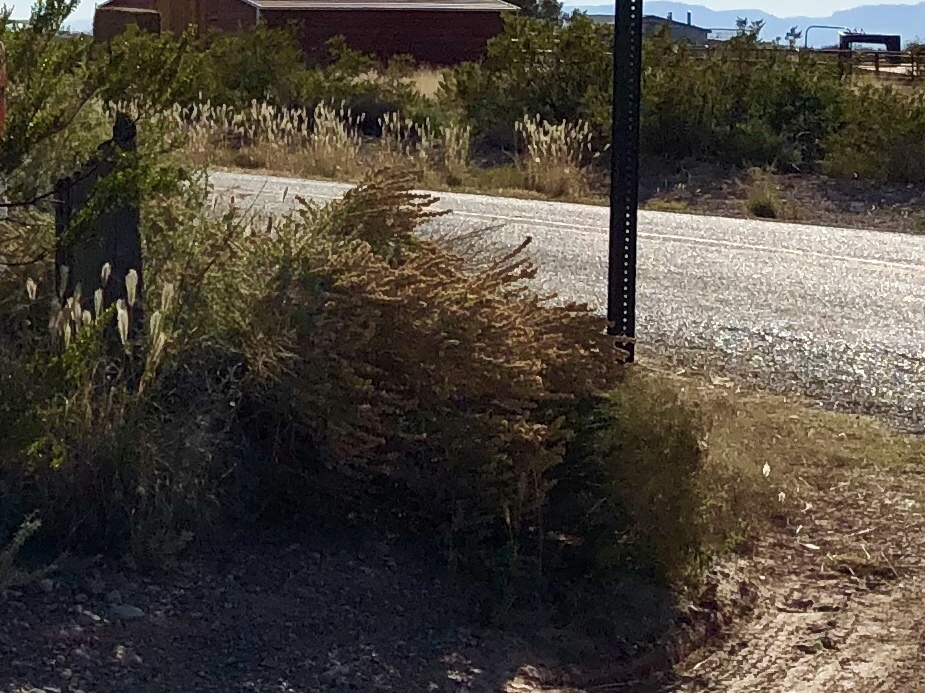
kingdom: Plantae
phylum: Tracheophyta
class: Magnoliopsida
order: Caryophyllales
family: Amaranthaceae
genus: Atriplex
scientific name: Atriplex canescens
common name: Four-wing saltbush
